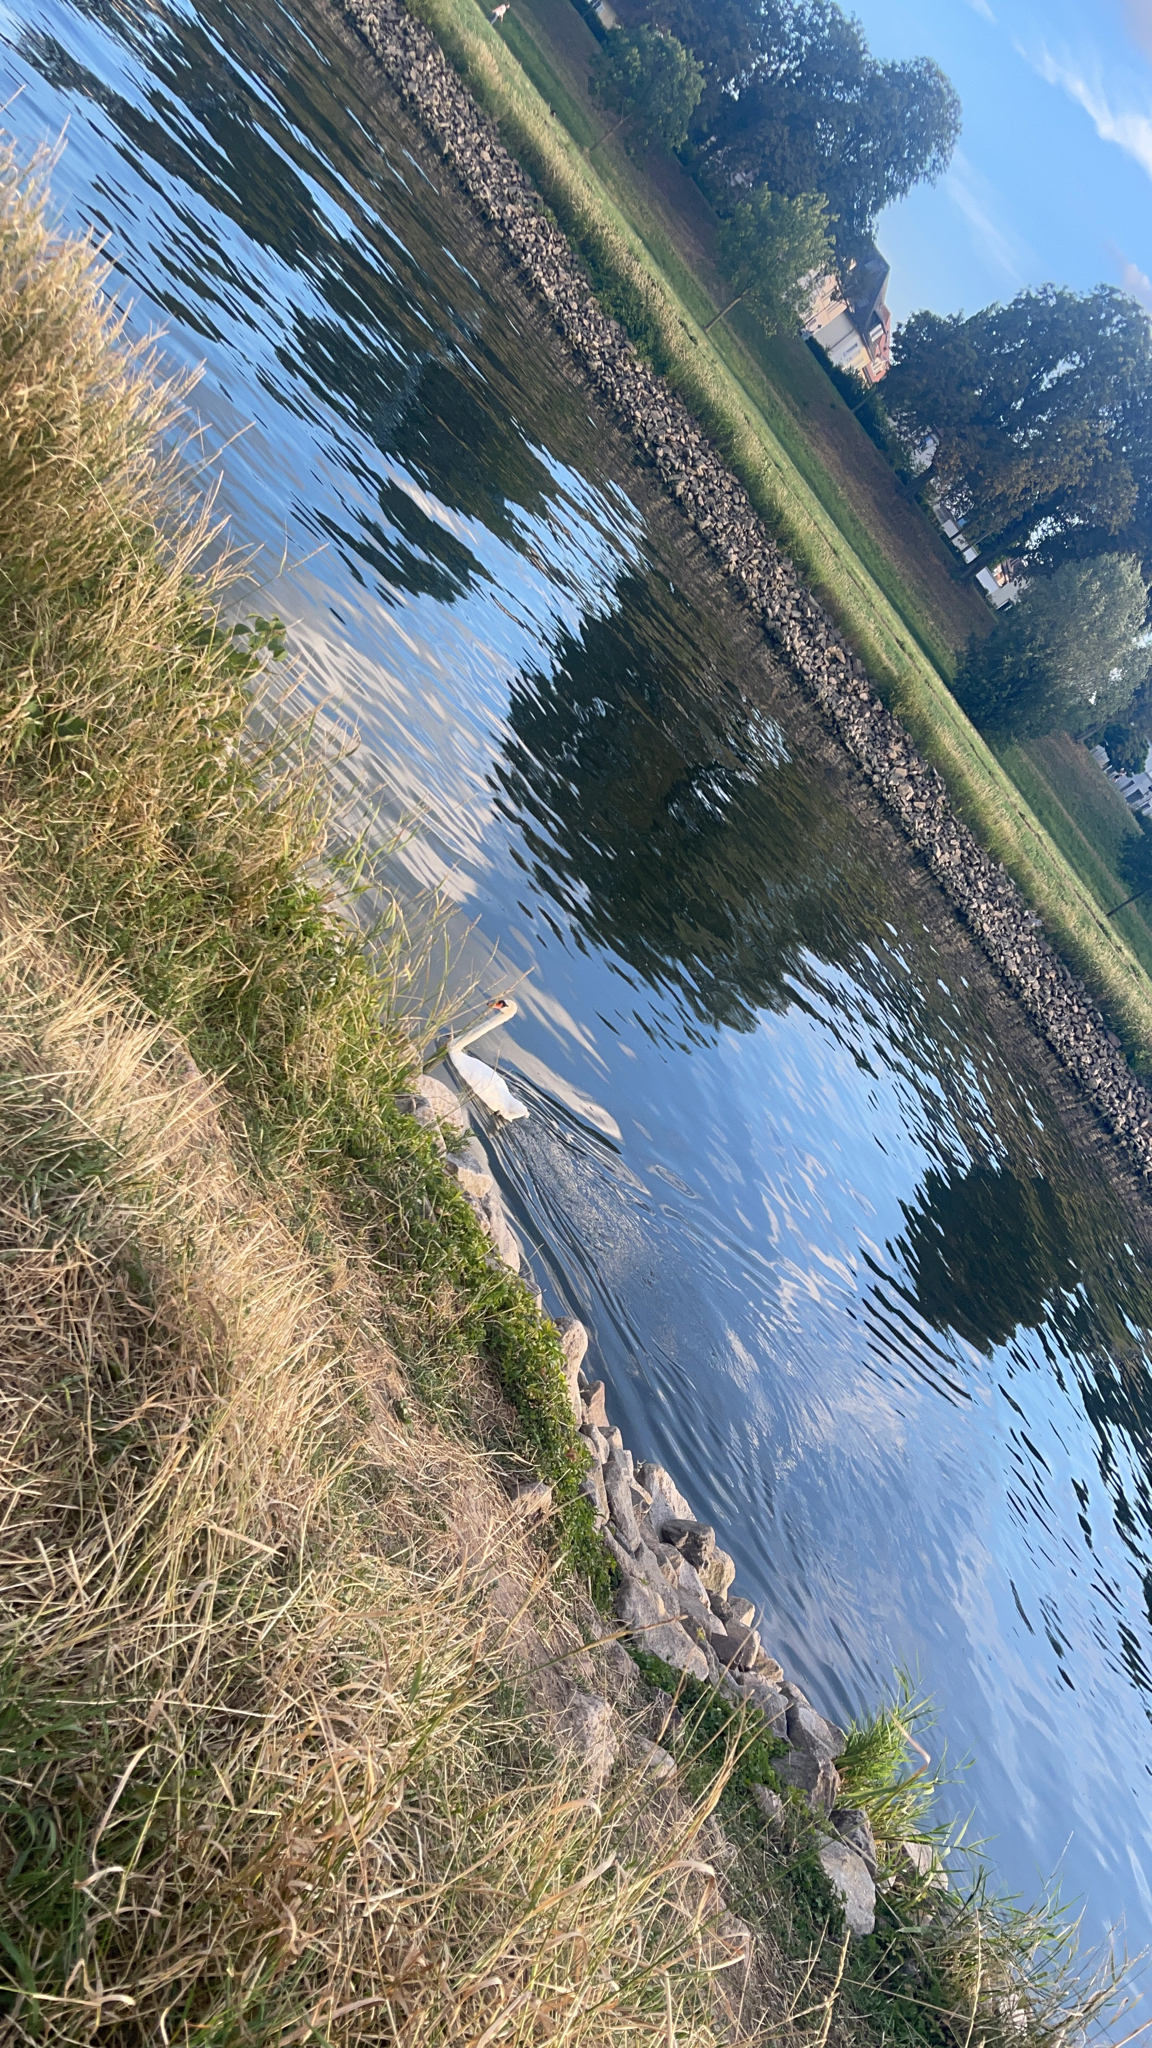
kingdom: Animalia
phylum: Chordata
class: Aves
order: Anseriformes
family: Anatidae
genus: Cygnus
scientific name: Cygnus olor
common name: Mute swan
